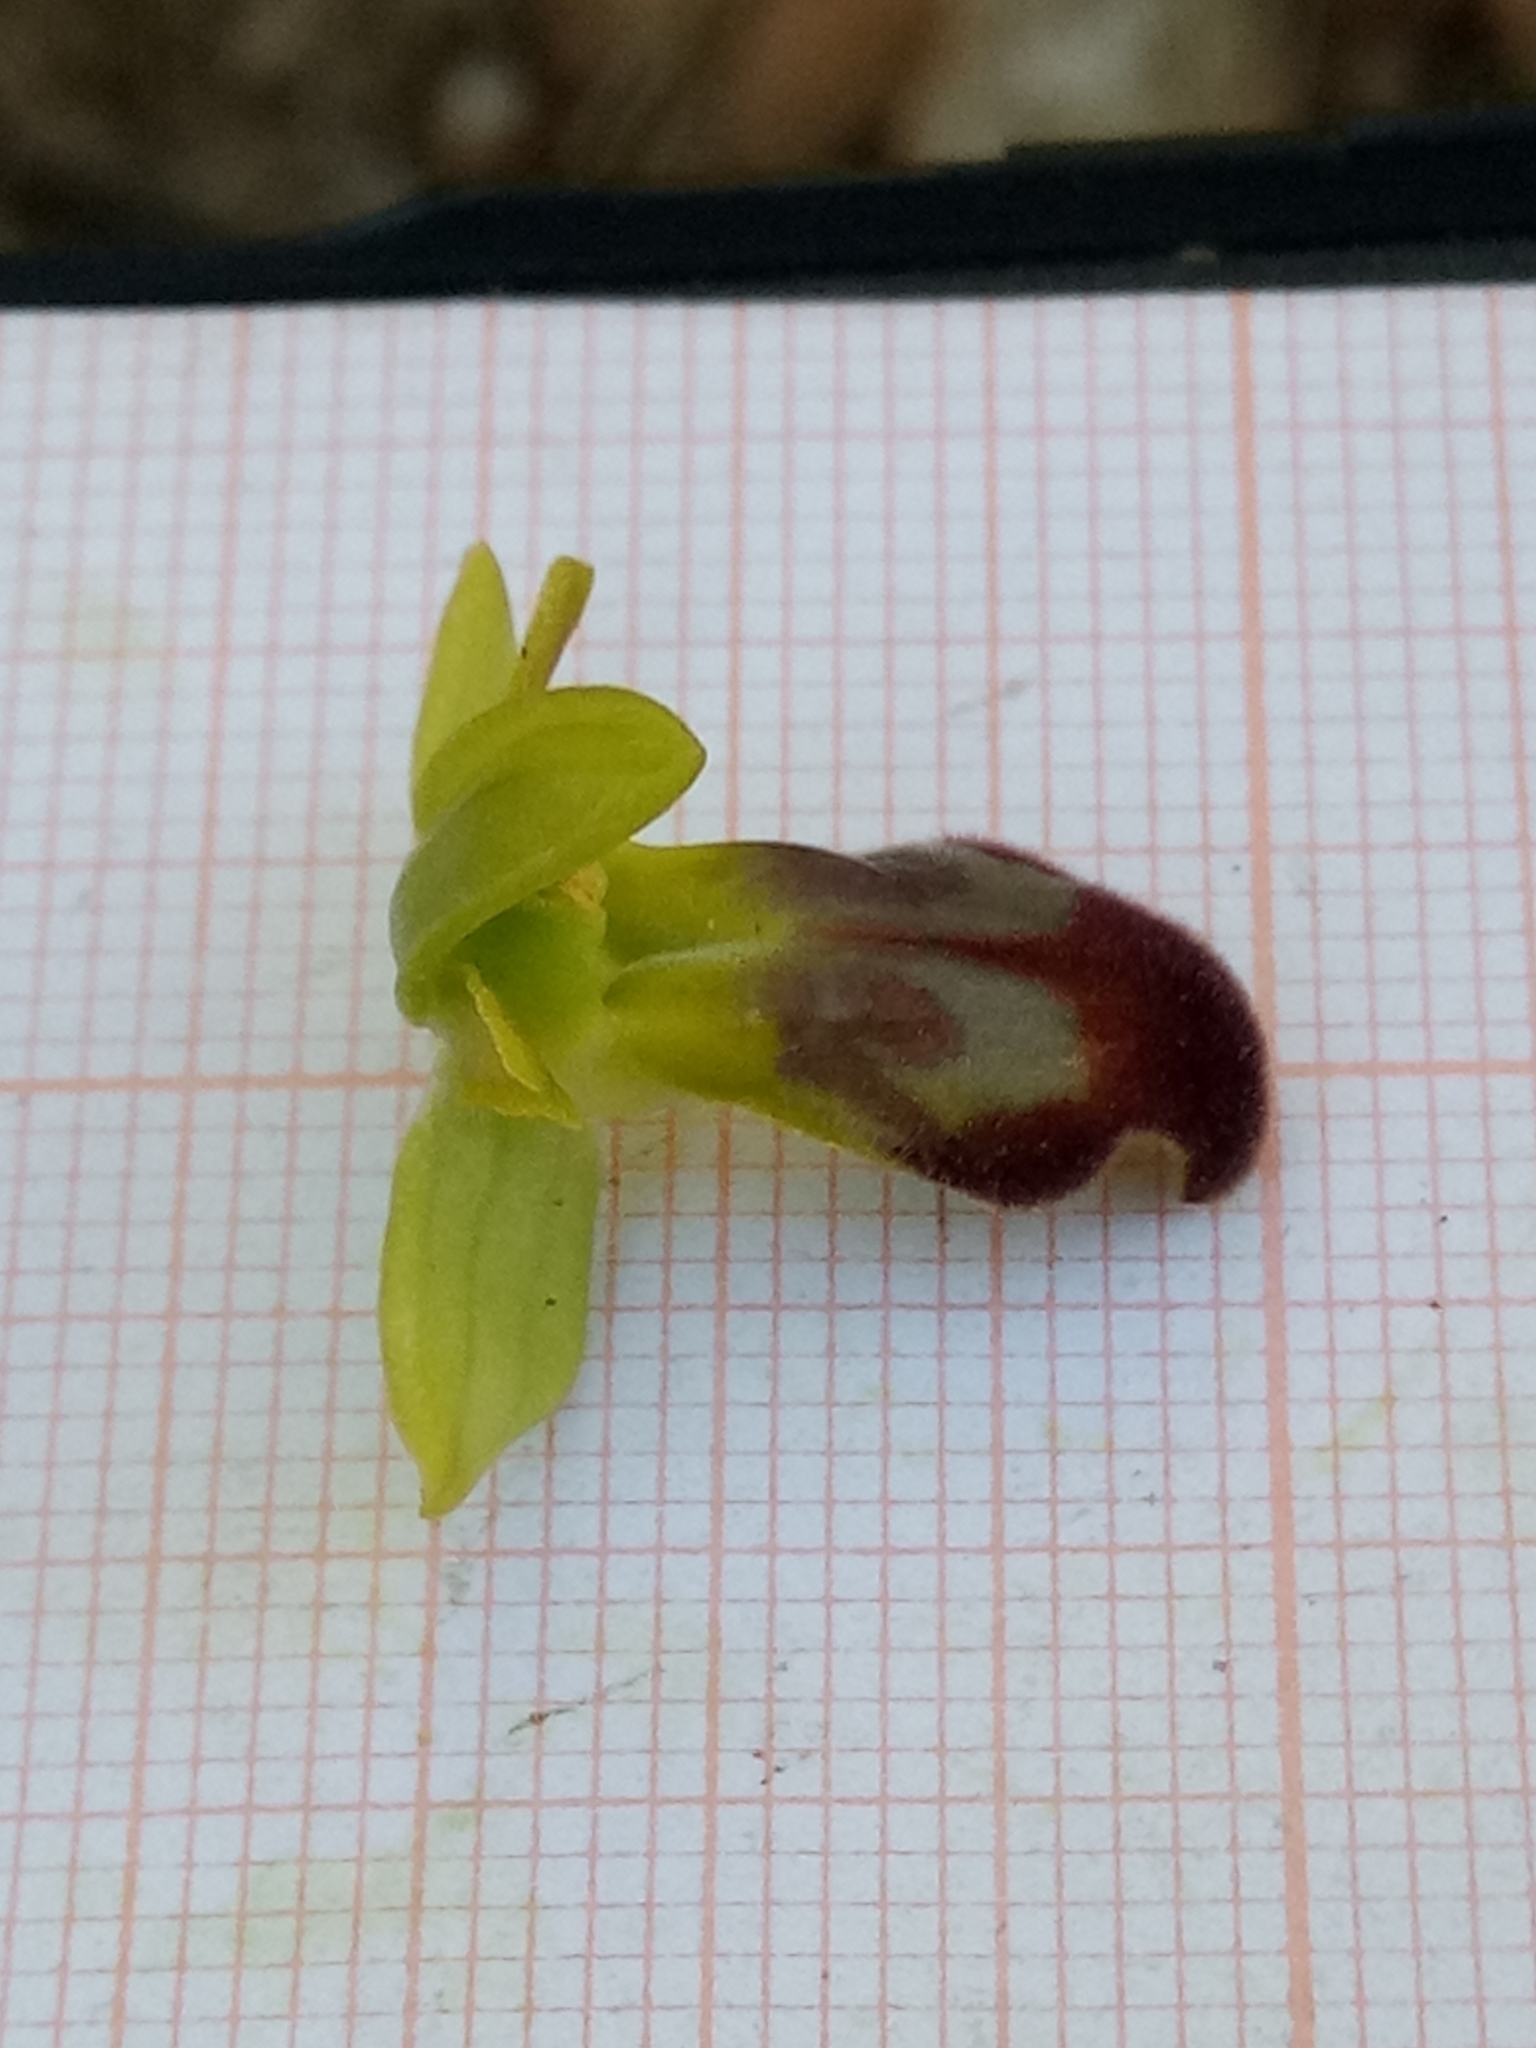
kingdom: Plantae
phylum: Tracheophyta
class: Liliopsida
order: Asparagales
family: Orchidaceae
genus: Ophrys
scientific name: Ophrys fusca
